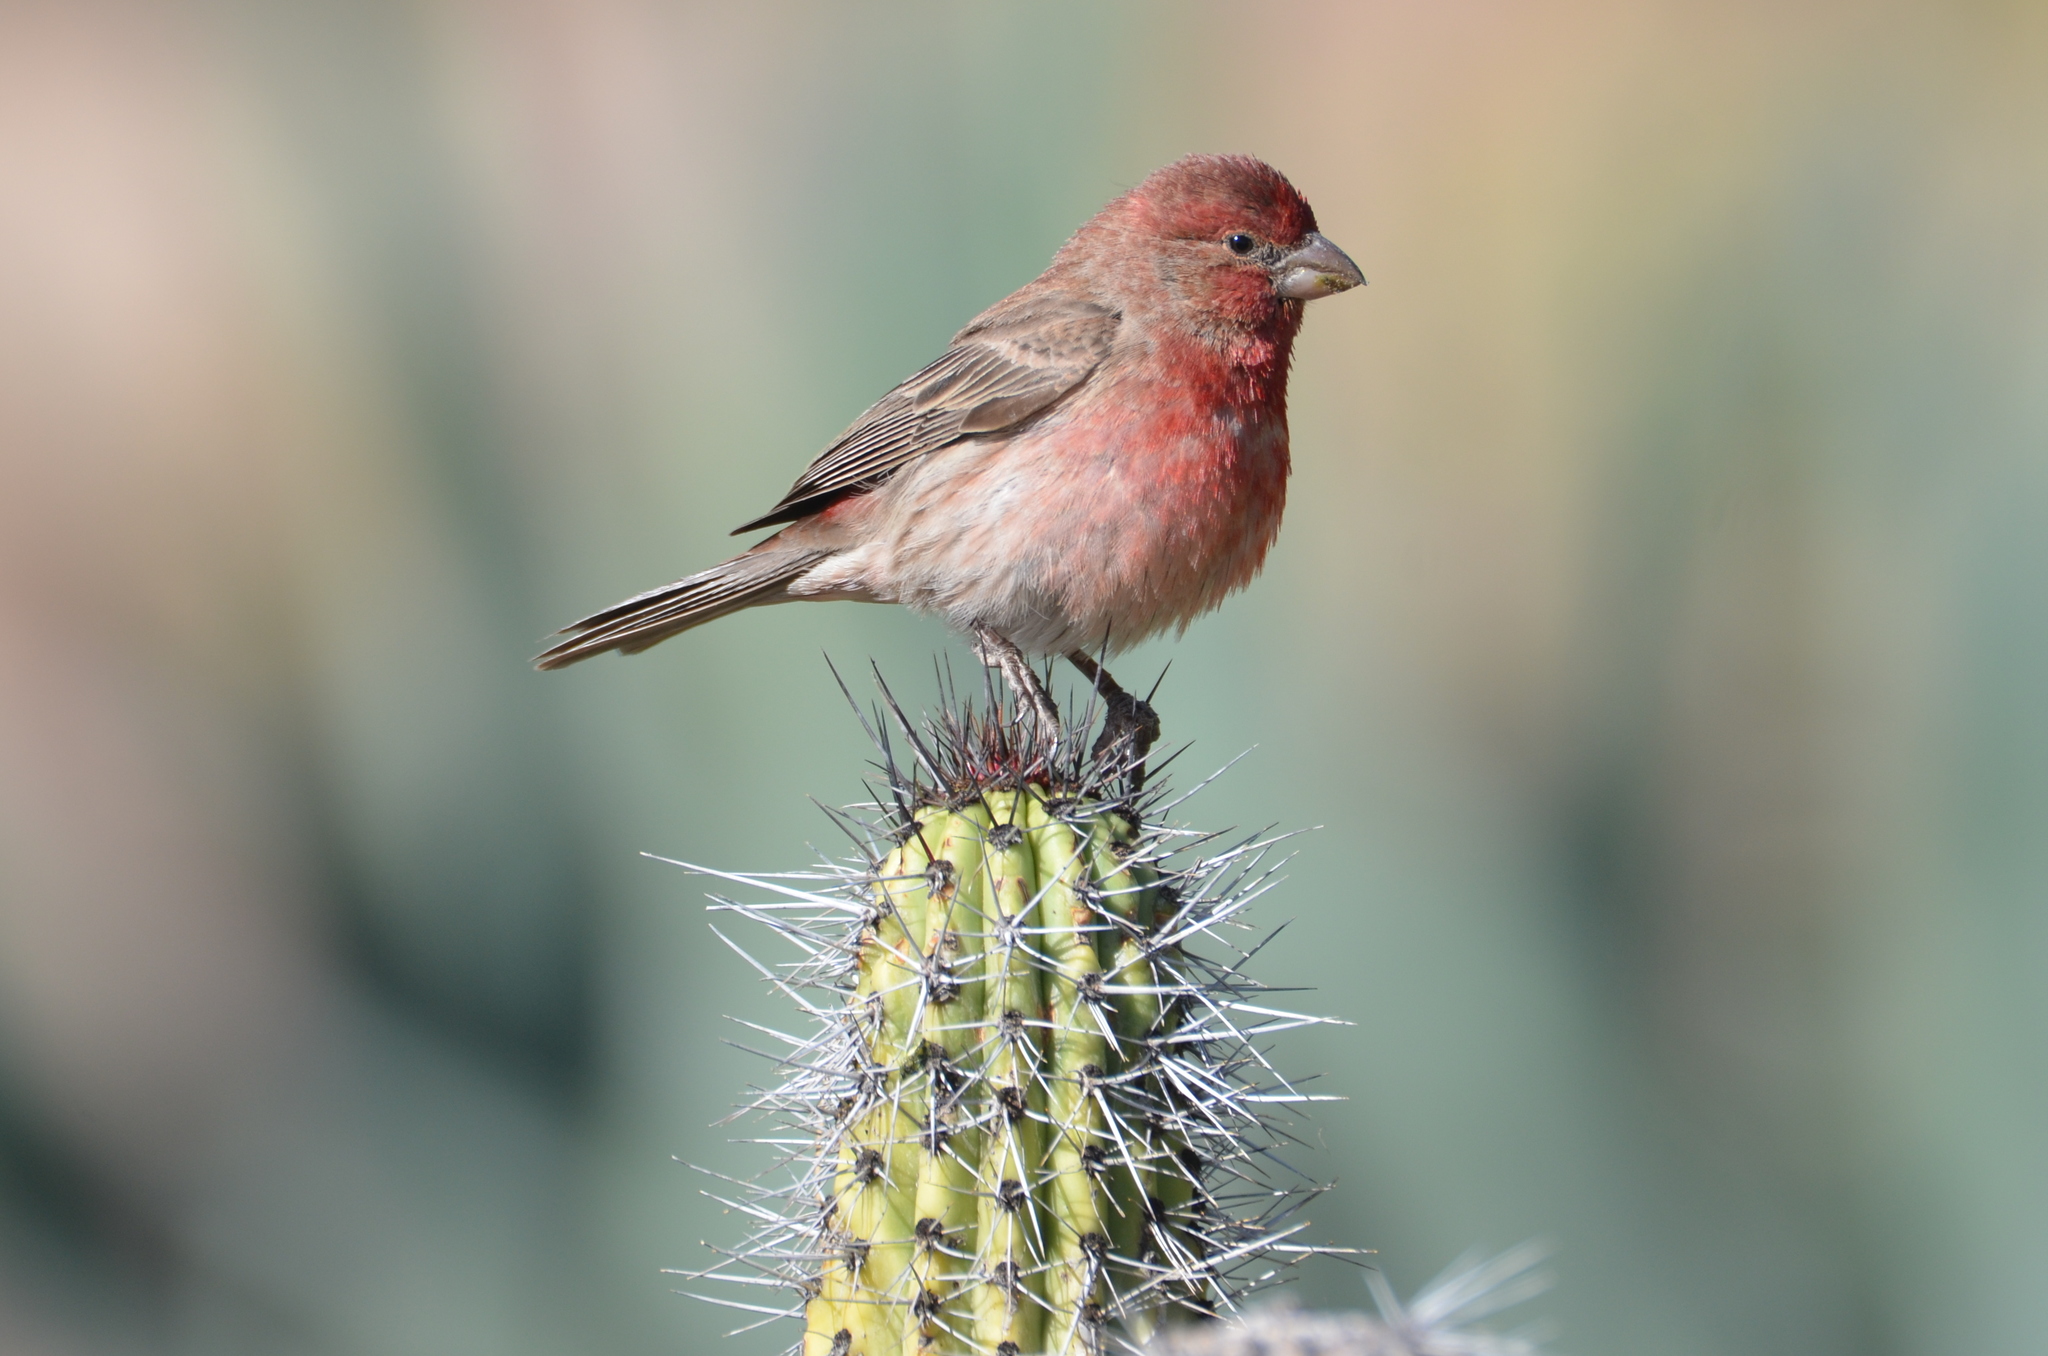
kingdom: Animalia
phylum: Chordata
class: Aves
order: Passeriformes
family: Fringillidae
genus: Haemorhous
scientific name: Haemorhous mexicanus
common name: House finch
